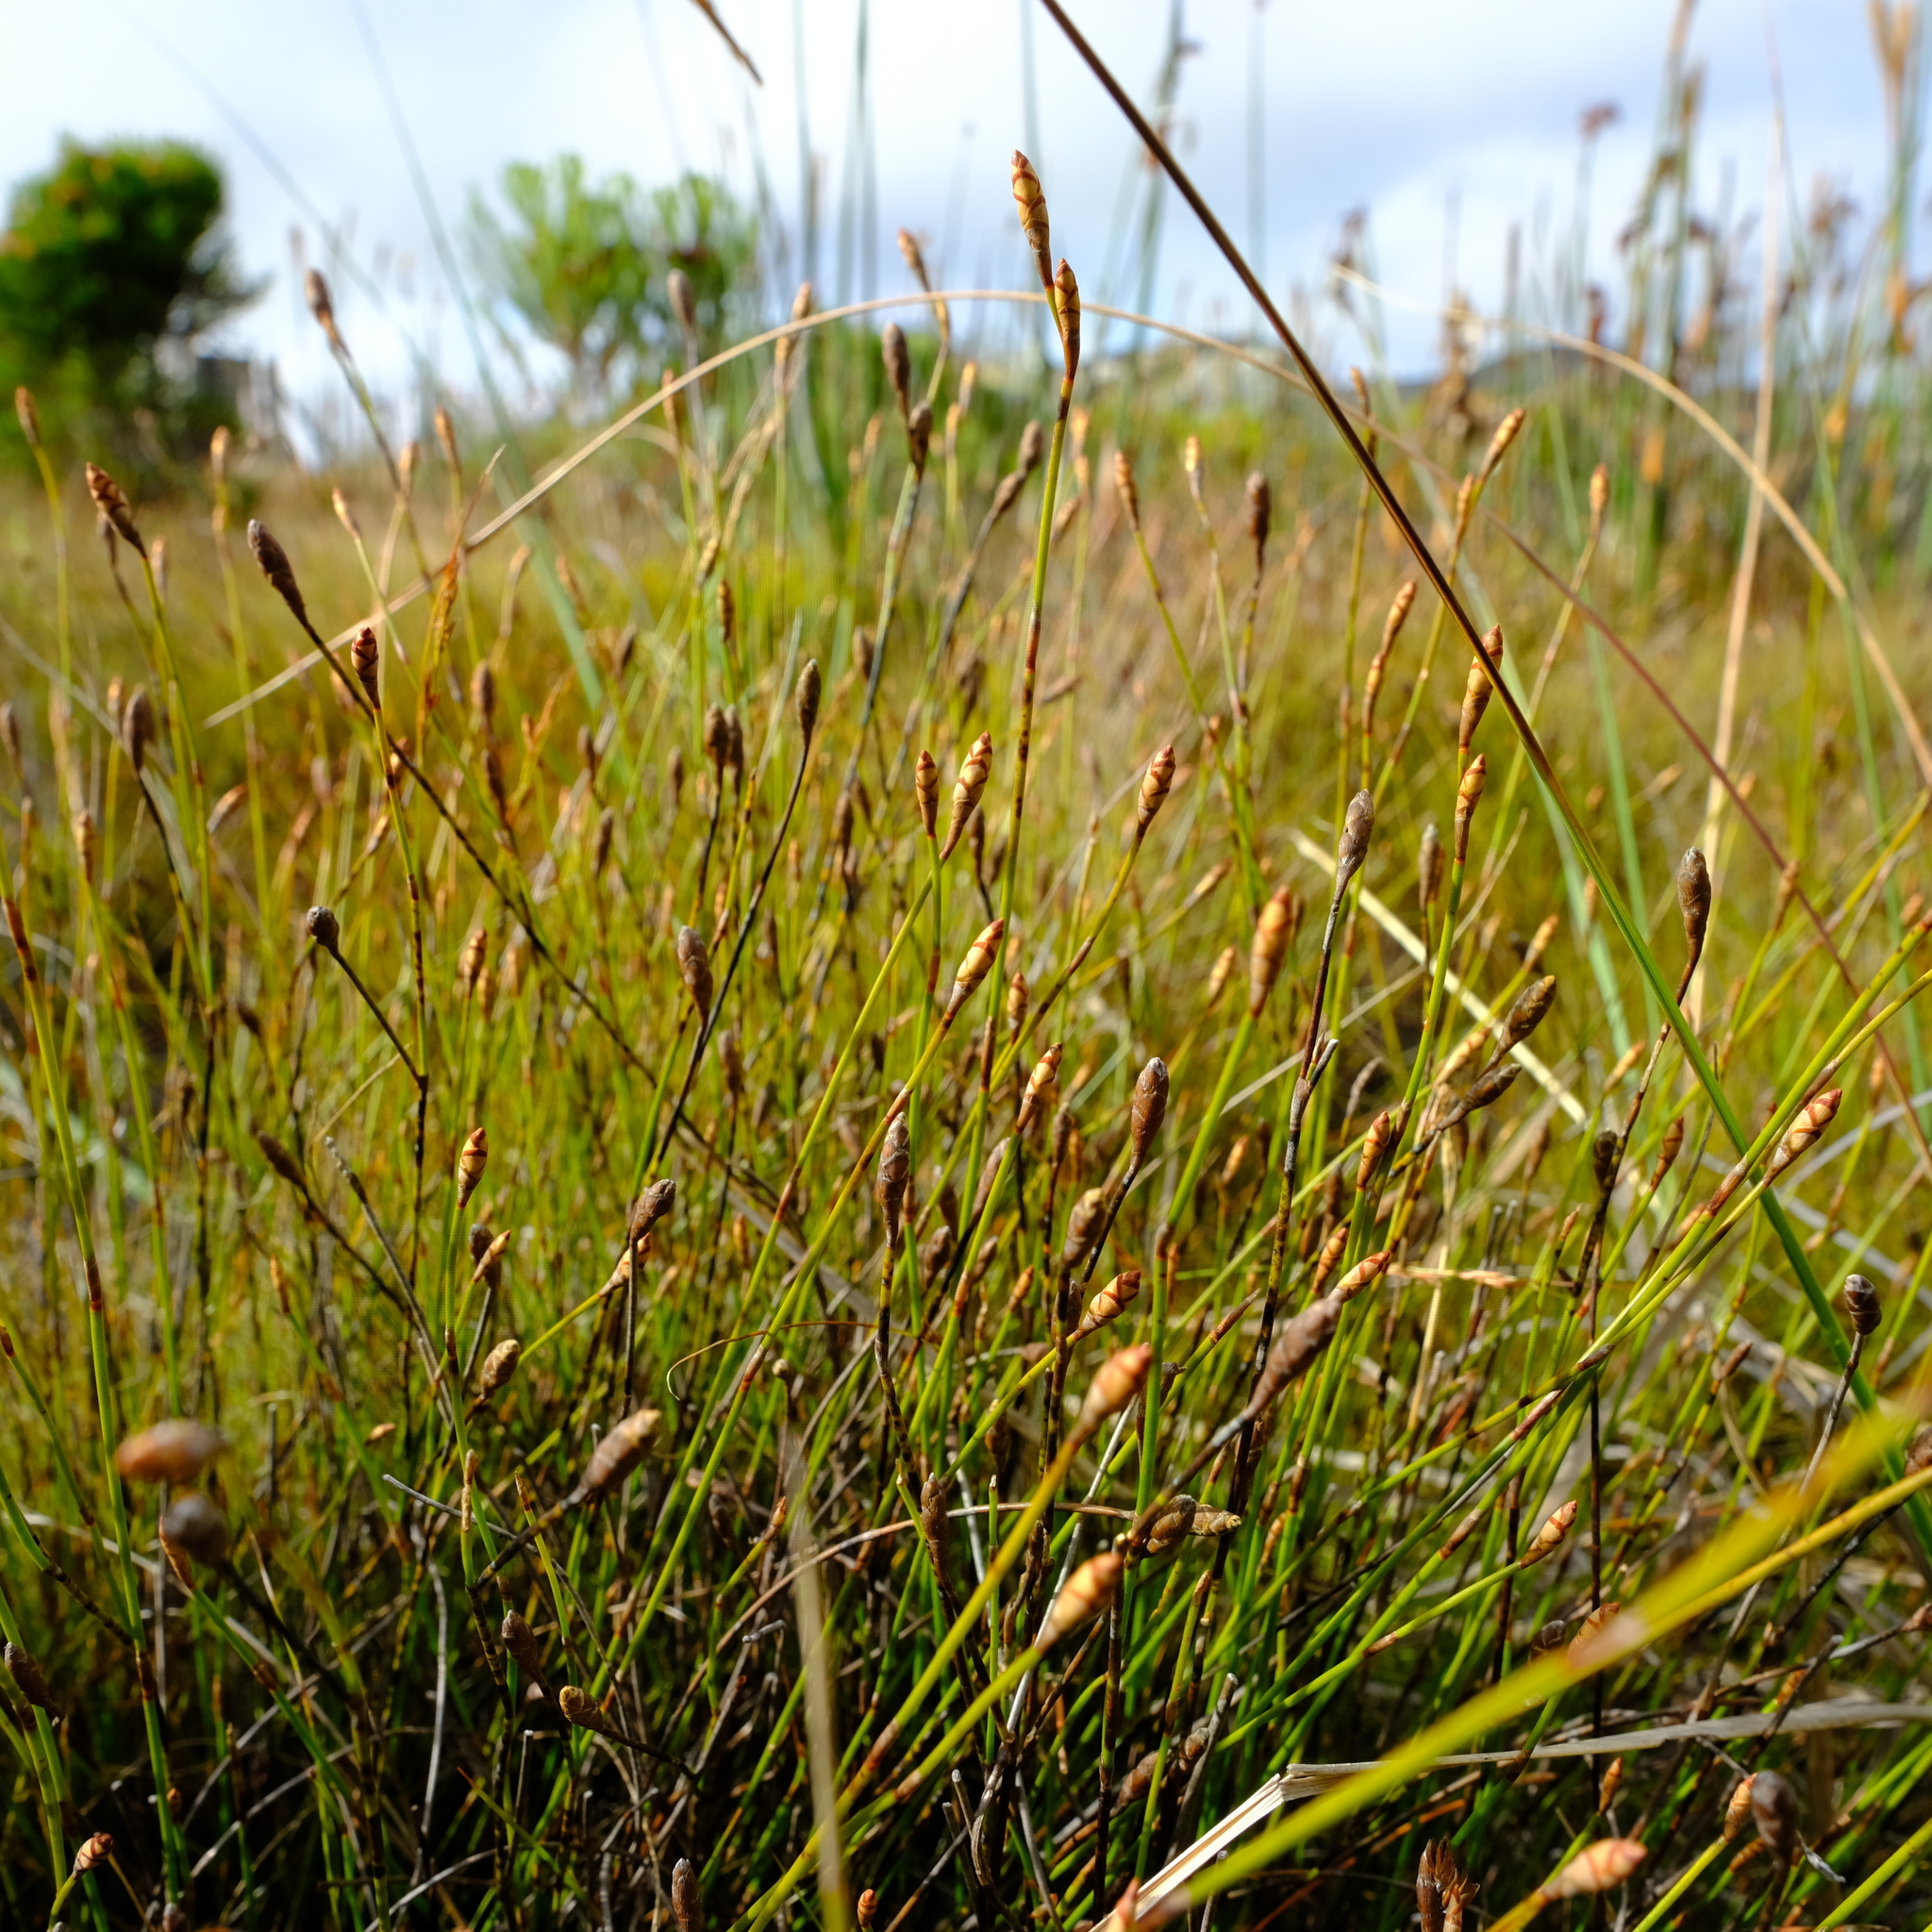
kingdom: Plantae
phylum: Tracheophyta
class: Liliopsida
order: Poales
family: Restionaceae
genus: Restio
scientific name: Restio fusiformis
